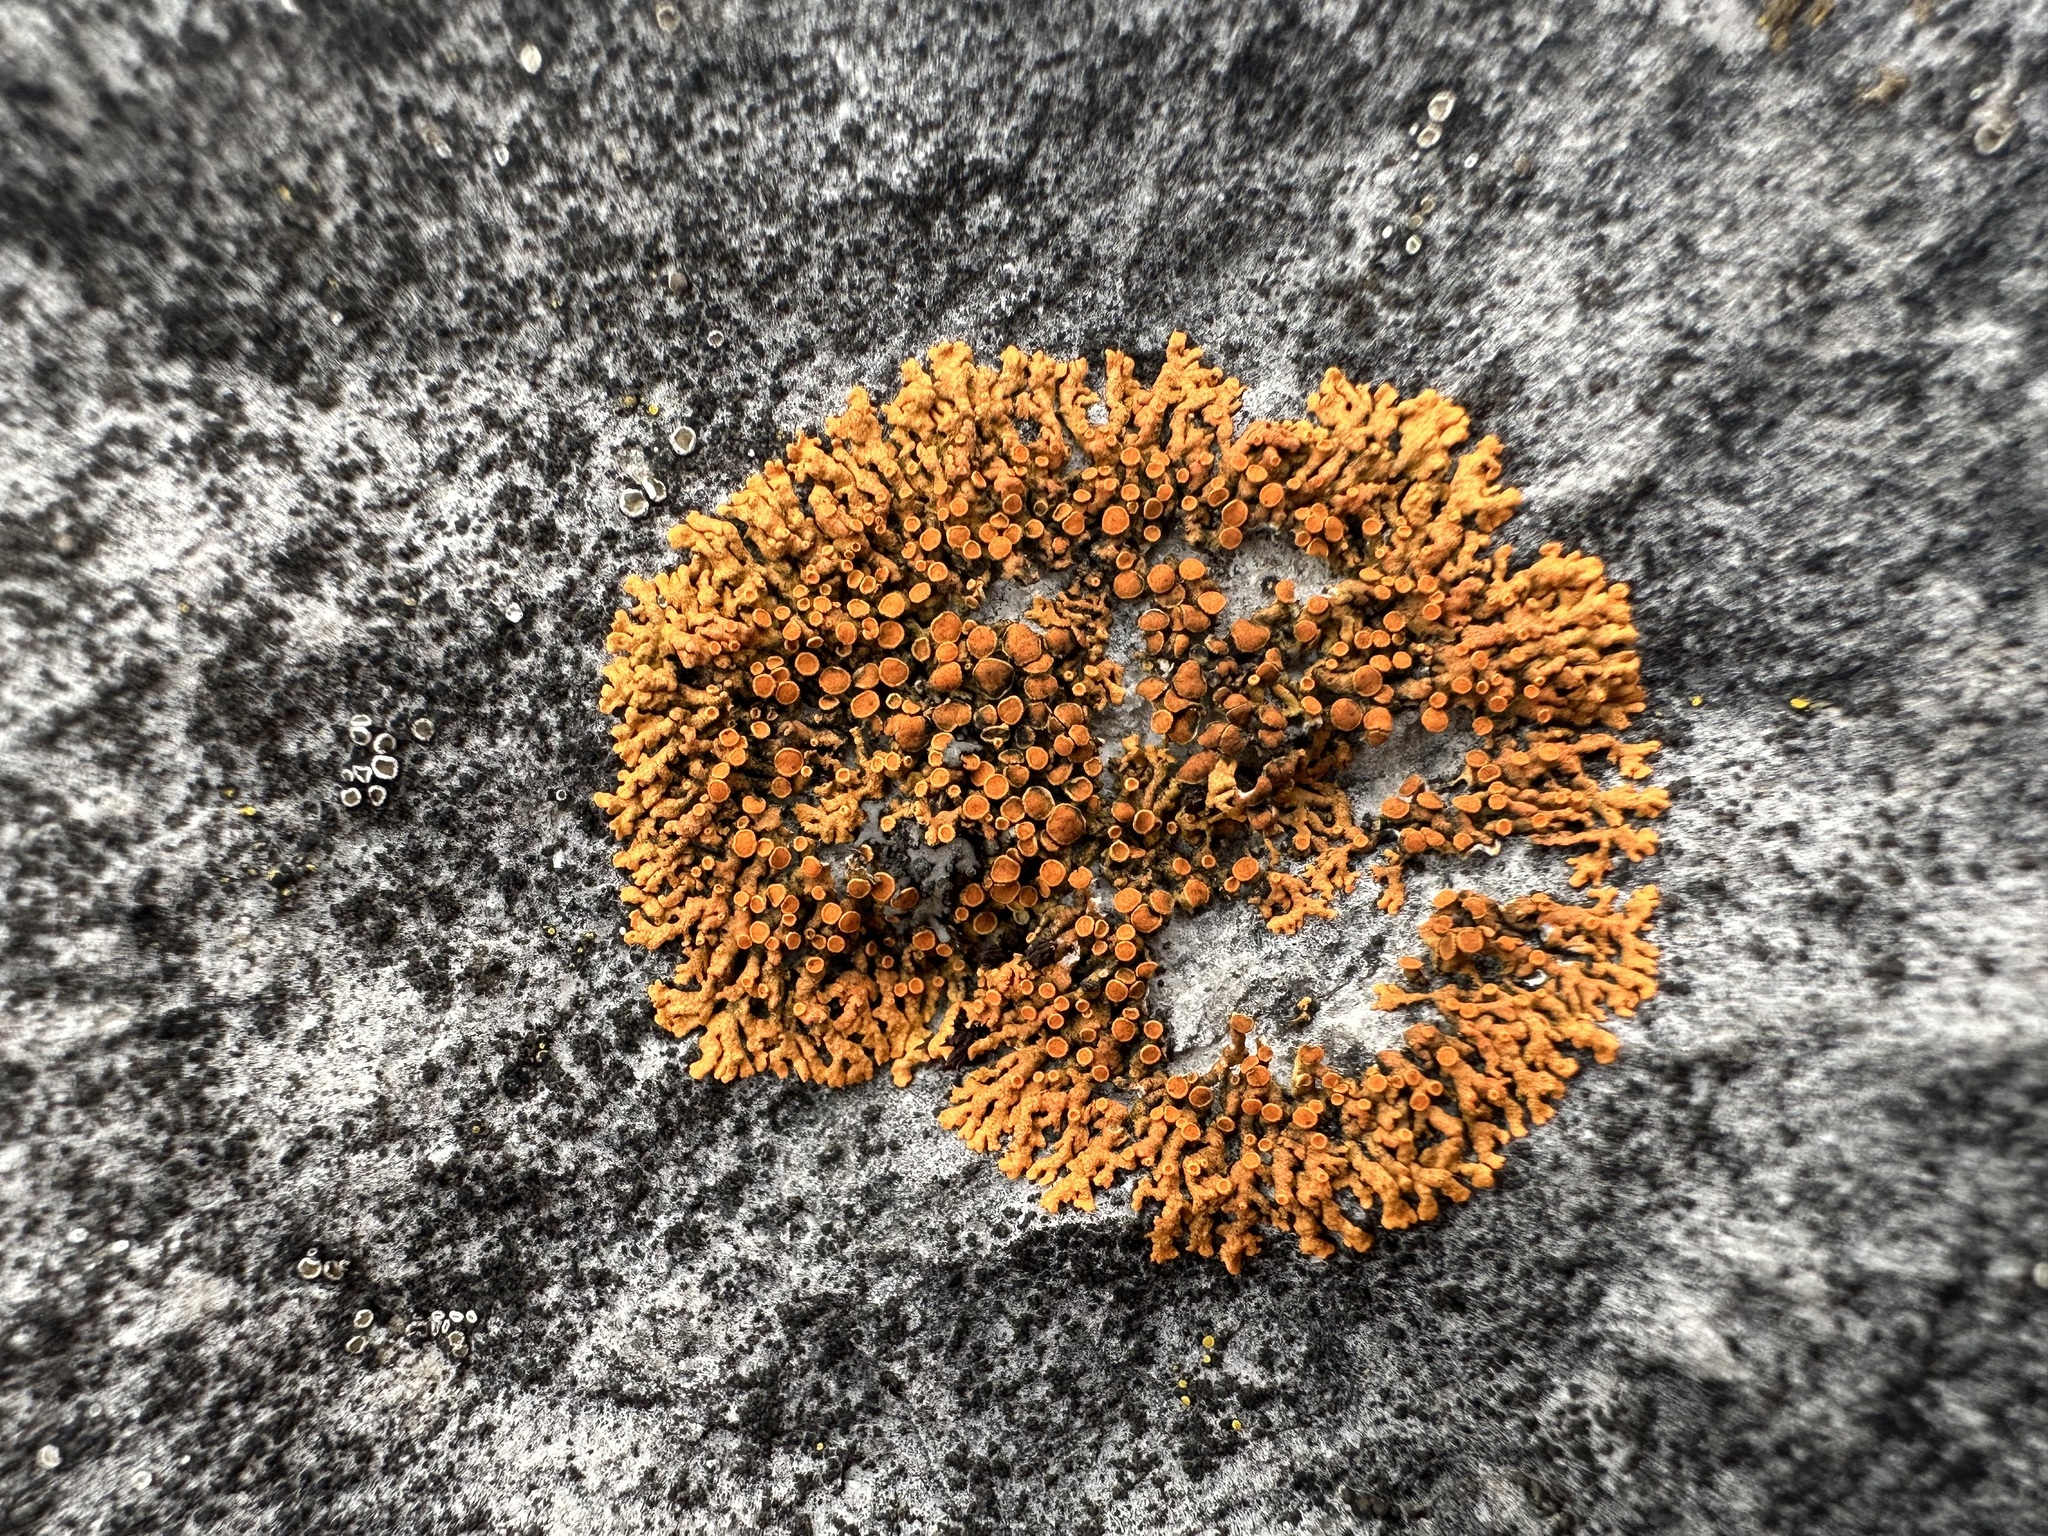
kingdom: Fungi
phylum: Ascomycota
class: Lecanoromycetes
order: Teloschistales
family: Teloschistaceae
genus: Xanthoria
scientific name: Xanthoria elegans
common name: Elegant sunburst lichen
